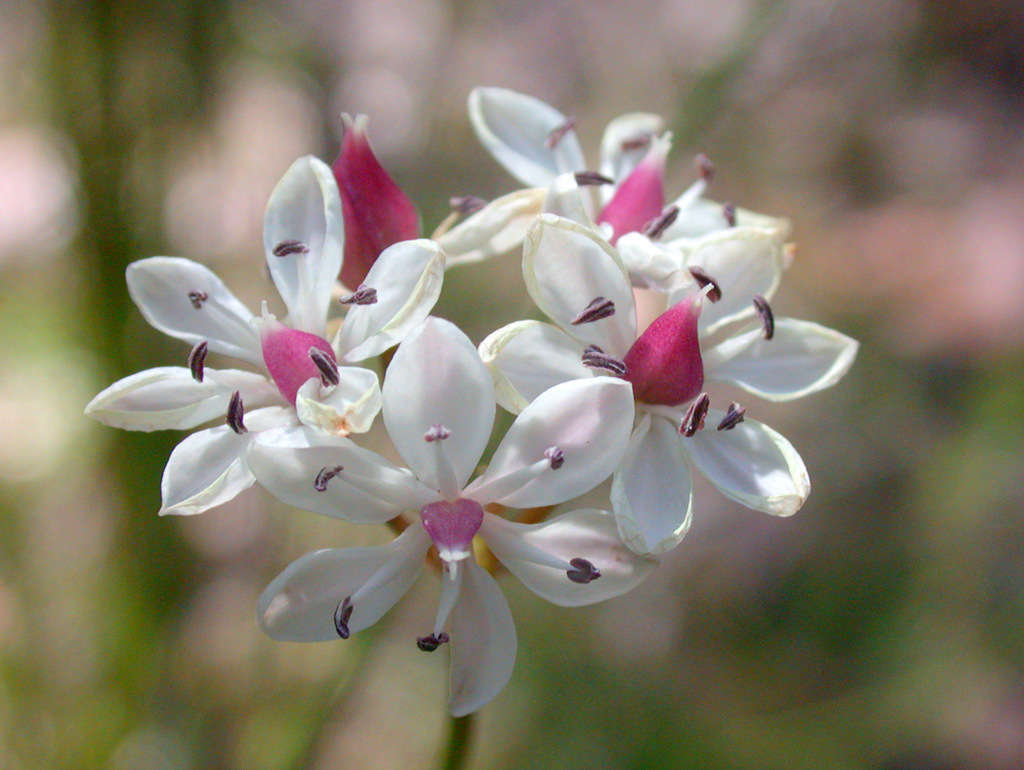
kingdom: Plantae
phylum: Tracheophyta
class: Liliopsida
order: Liliales
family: Colchicaceae
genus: Burchardia
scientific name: Burchardia umbellata
